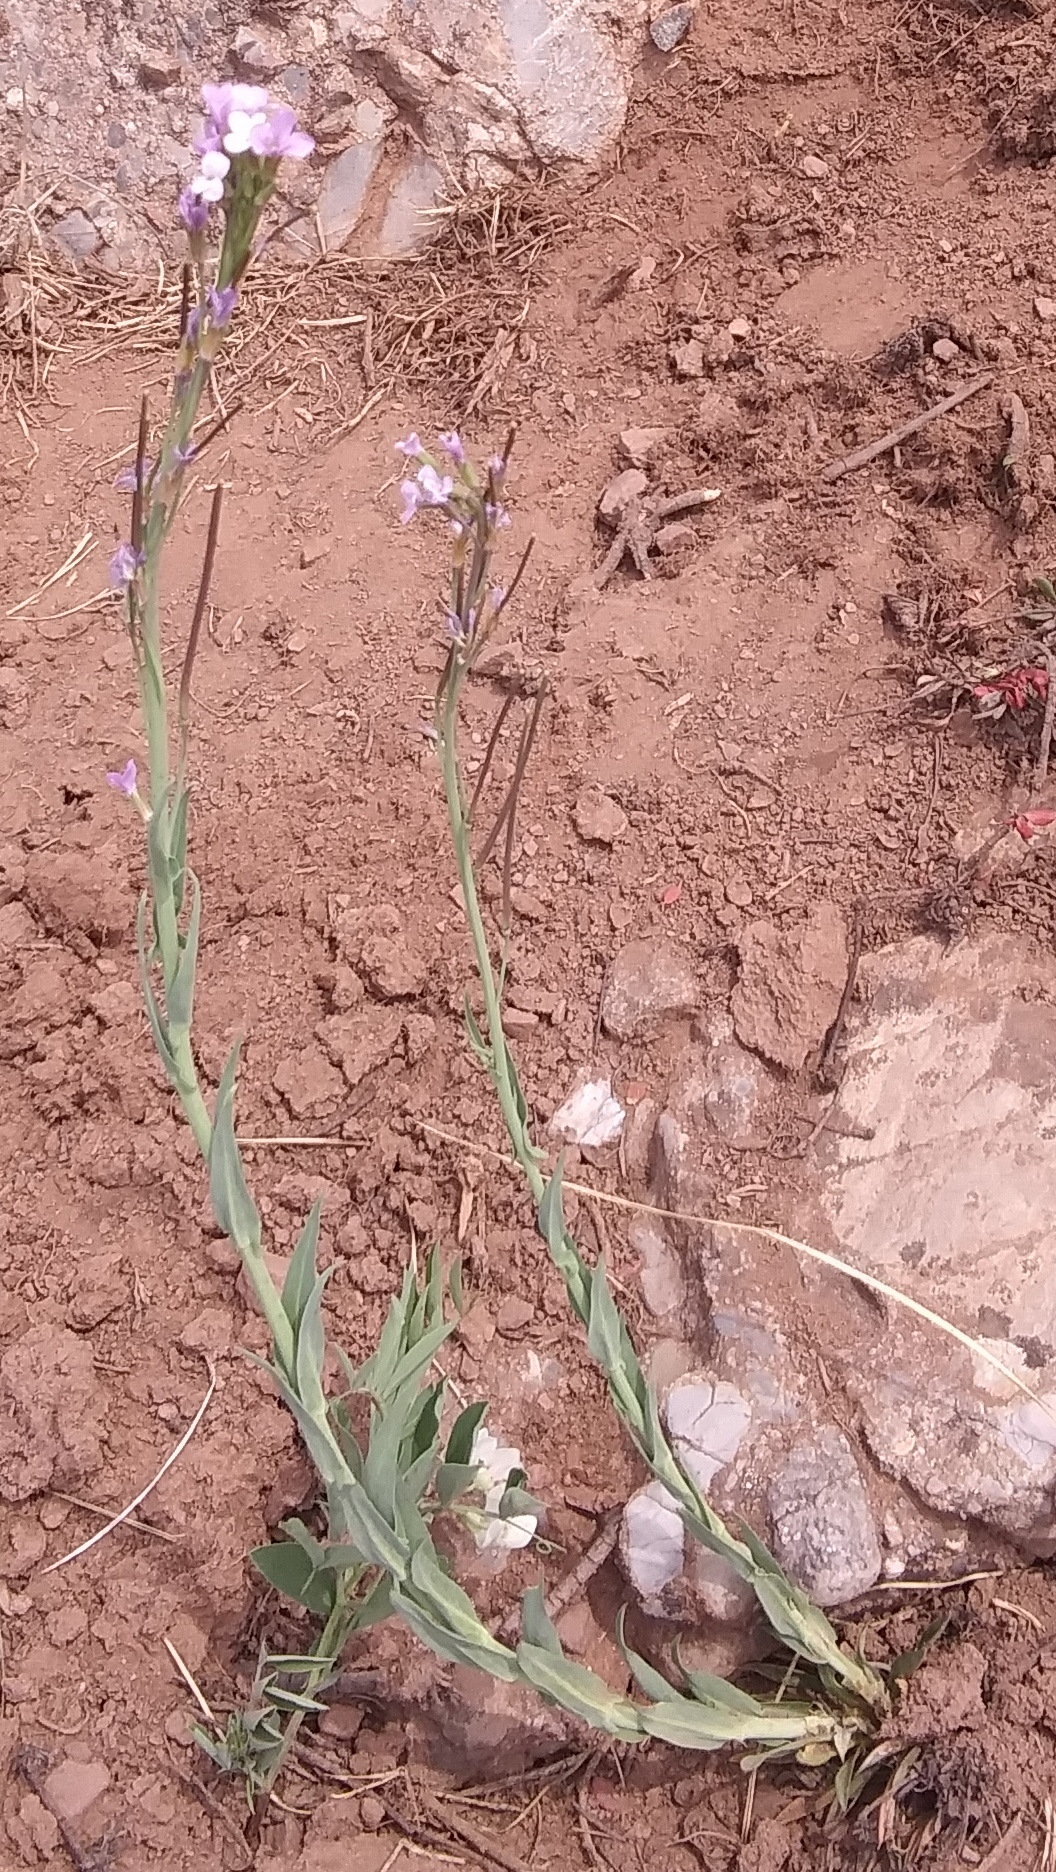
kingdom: Plantae
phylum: Tracheophyta
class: Magnoliopsida
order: Brassicales
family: Brassicaceae
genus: Boechera
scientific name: Boechera stricta
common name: Canadian rockcress
